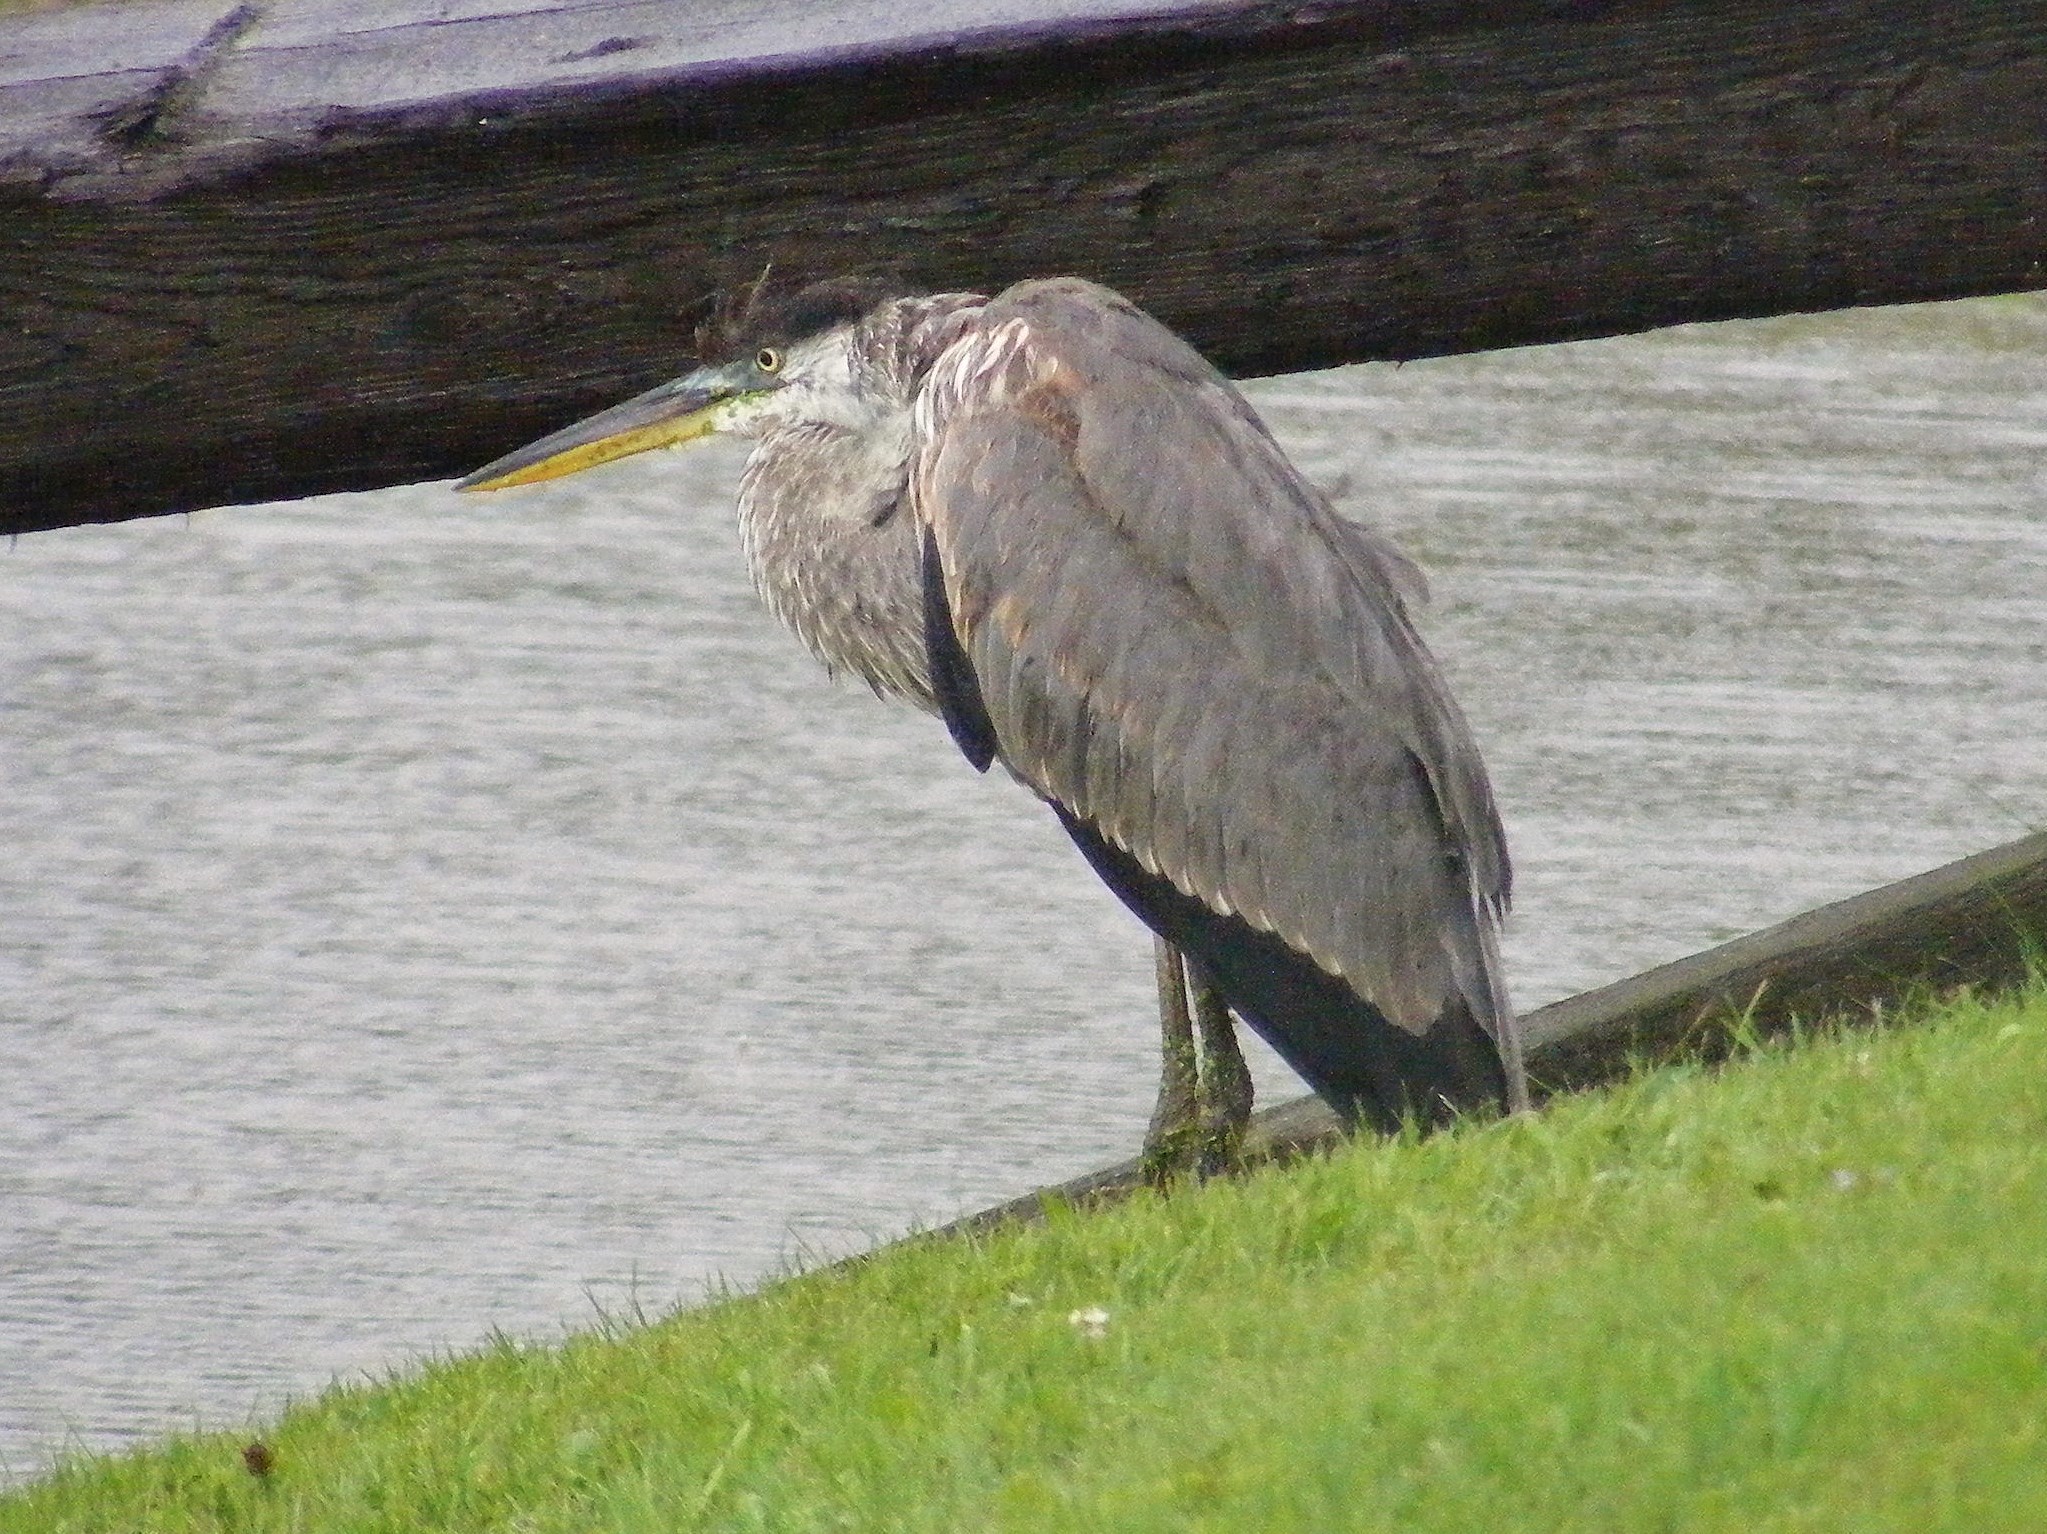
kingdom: Animalia
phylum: Chordata
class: Aves
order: Pelecaniformes
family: Ardeidae
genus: Ardea
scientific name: Ardea herodias
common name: Great blue heron
